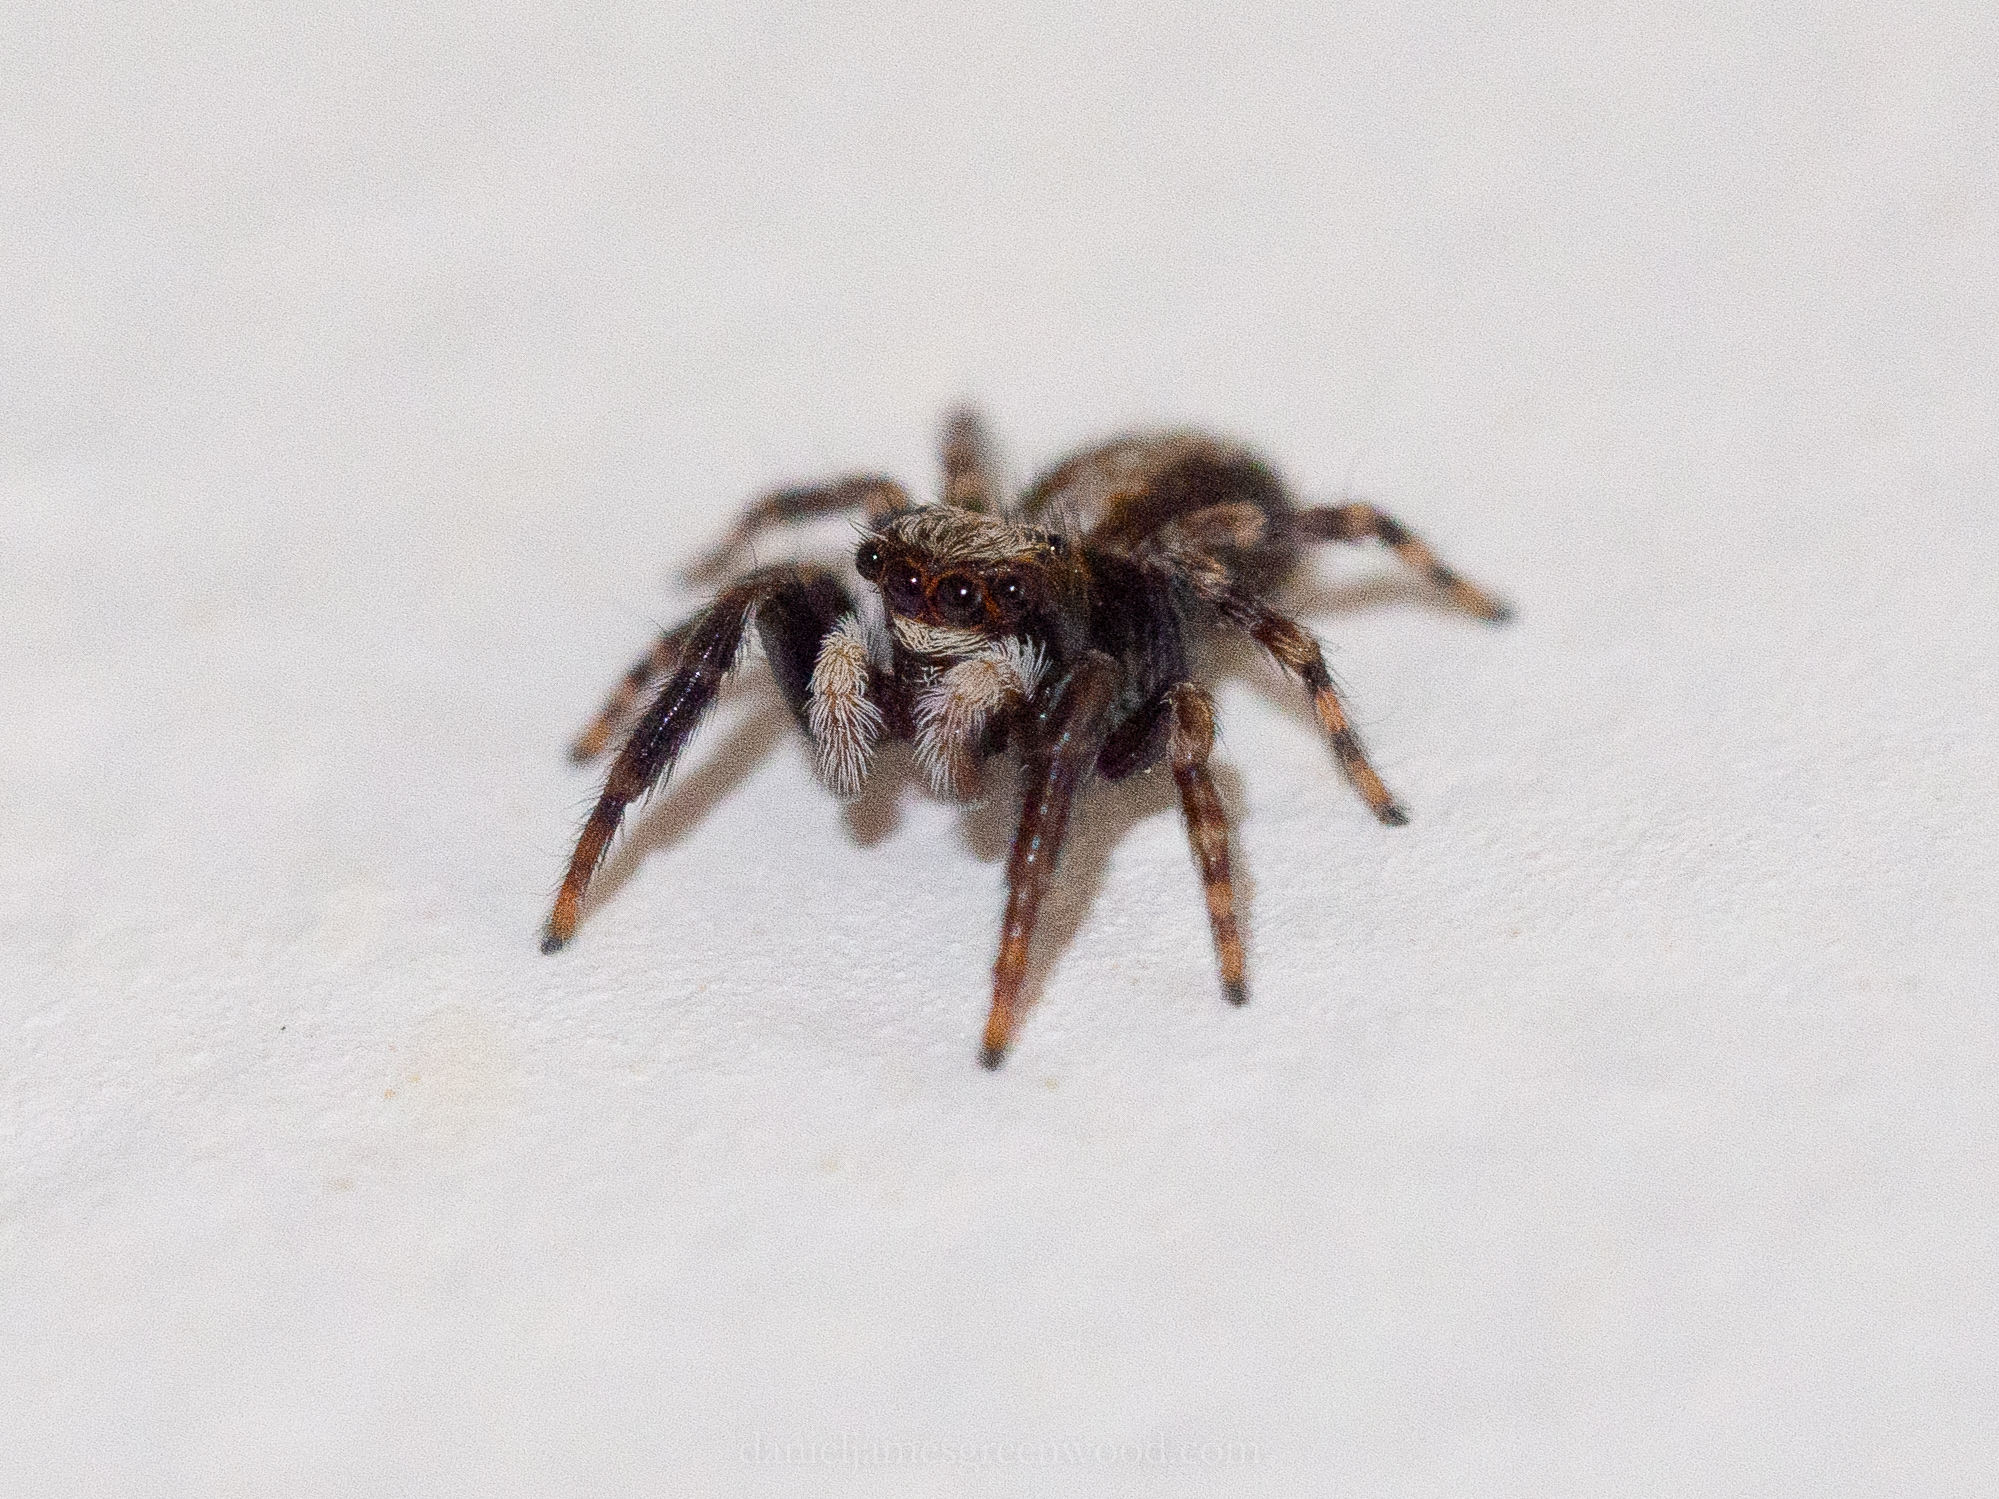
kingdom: Animalia
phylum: Arthropoda
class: Arachnida
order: Araneae
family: Salticidae
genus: Pseudeuophrys
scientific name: Pseudeuophrys lanigera
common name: Jumping spider
